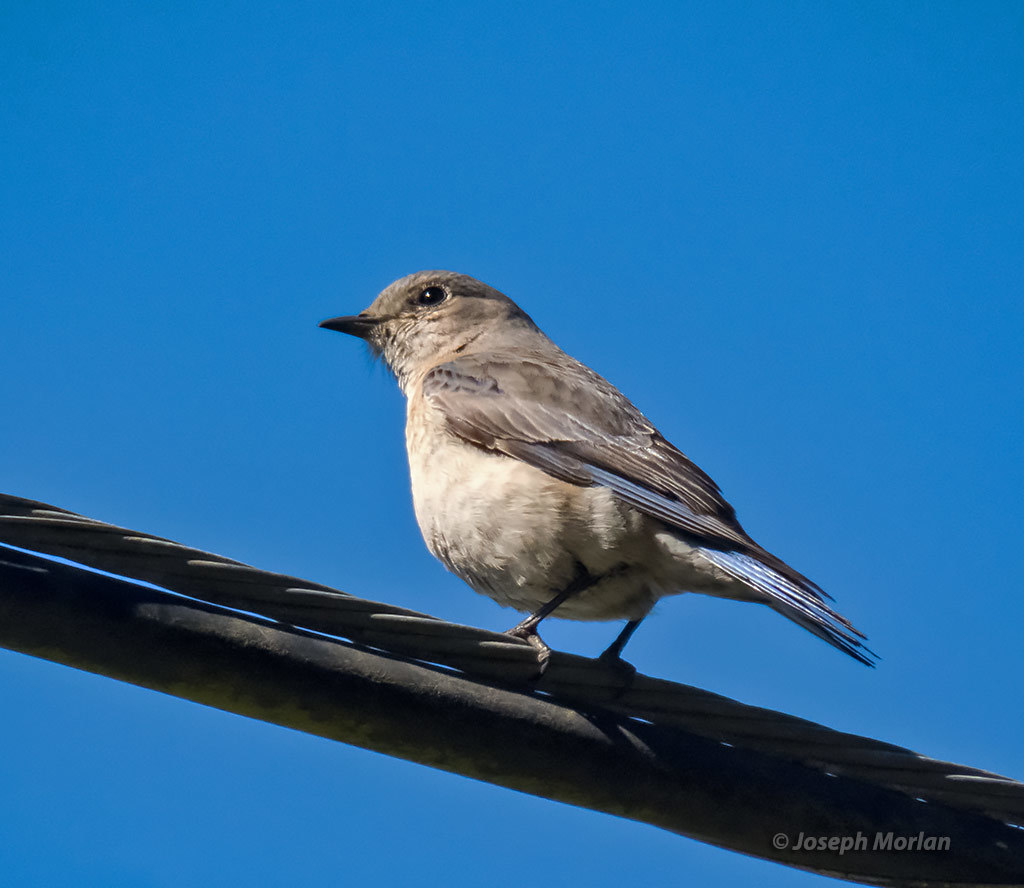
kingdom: Animalia
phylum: Chordata
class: Aves
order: Passeriformes
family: Turdidae
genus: Sialia
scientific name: Sialia mexicana
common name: Western bluebird
